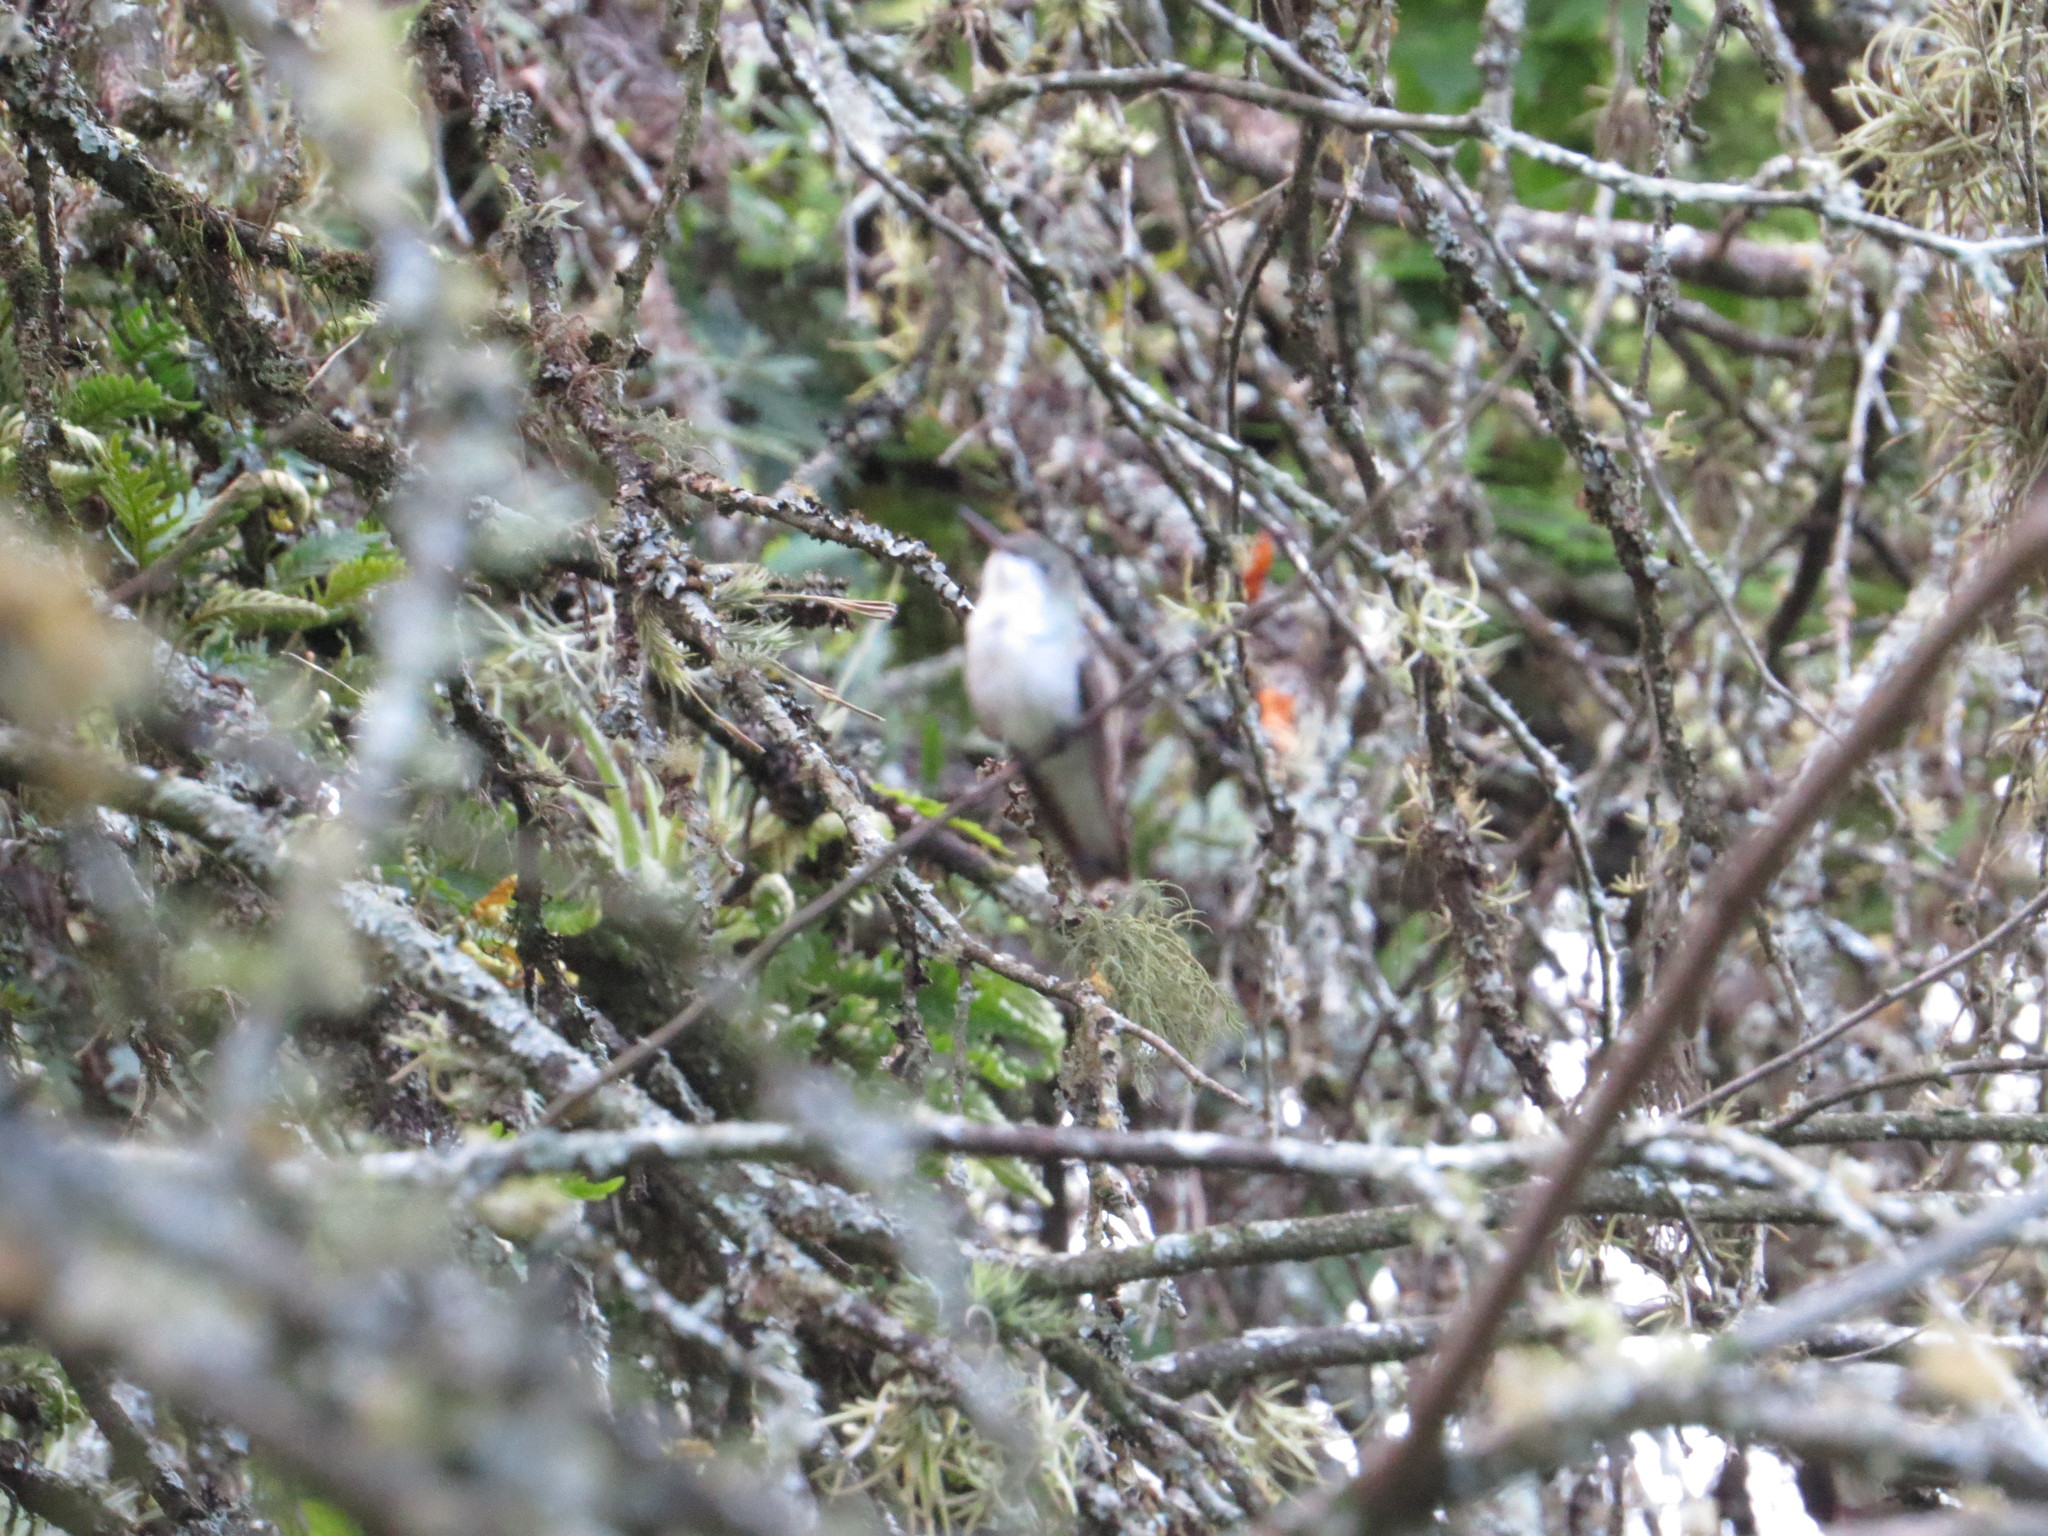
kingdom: Animalia
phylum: Chordata
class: Aves
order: Apodiformes
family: Trochilidae
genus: Elliotomyia
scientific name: Elliotomyia chionogaster
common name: White-bellied hummingbird
